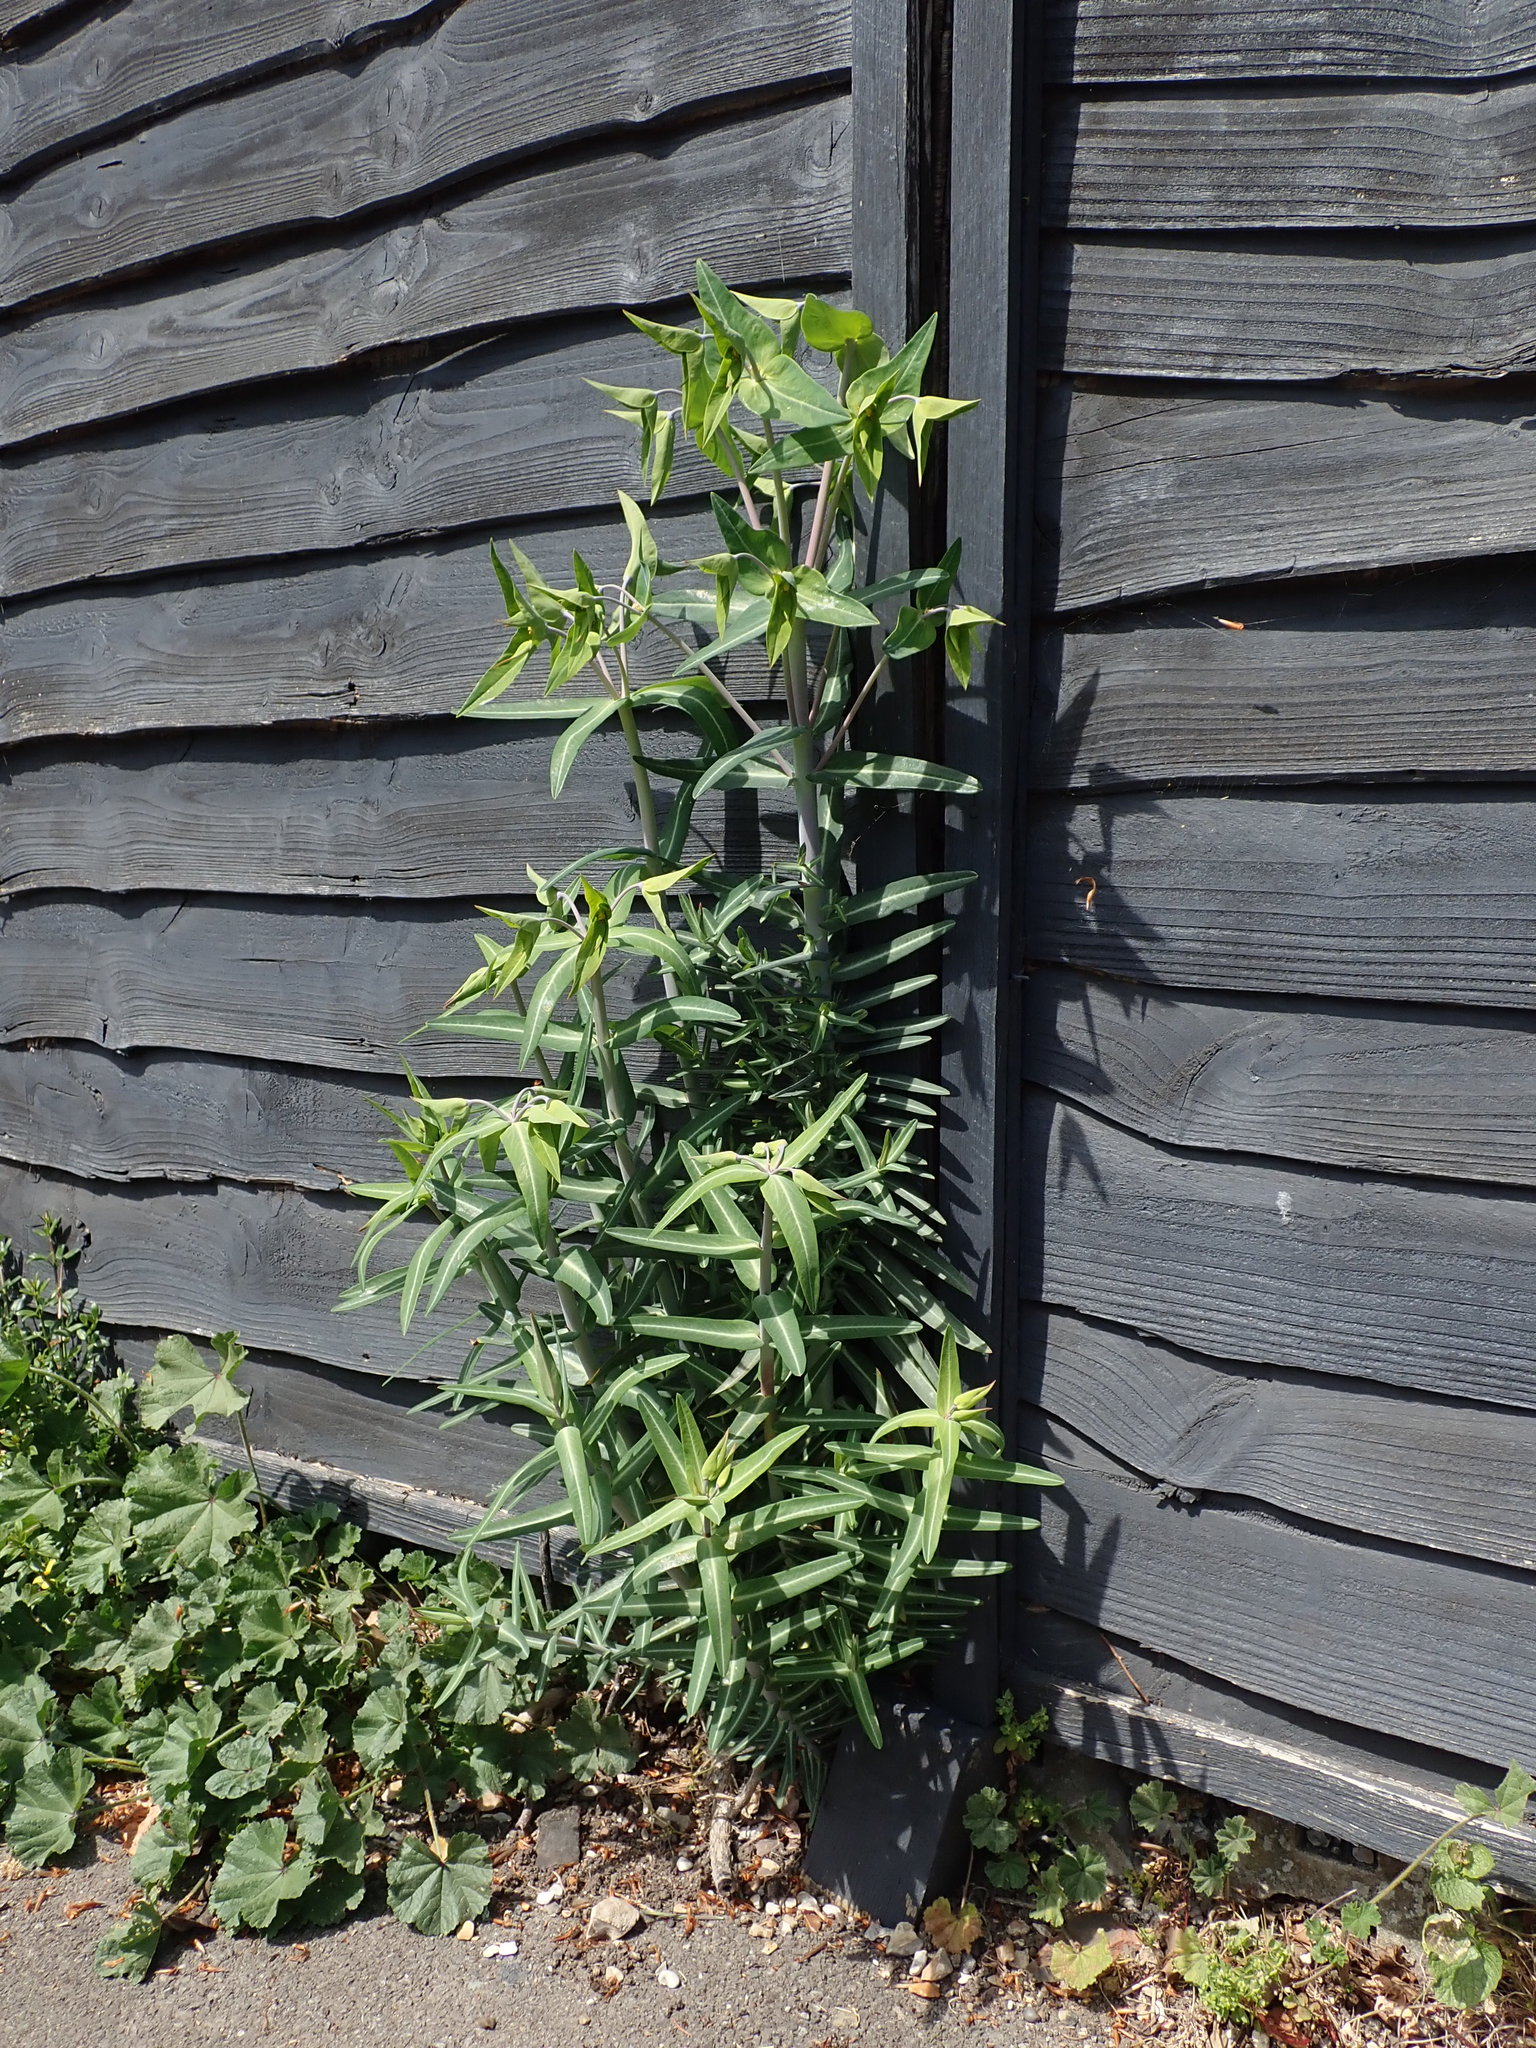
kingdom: Plantae
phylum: Tracheophyta
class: Magnoliopsida
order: Malpighiales
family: Euphorbiaceae
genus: Euphorbia
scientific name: Euphorbia lathyris
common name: Caper spurge
